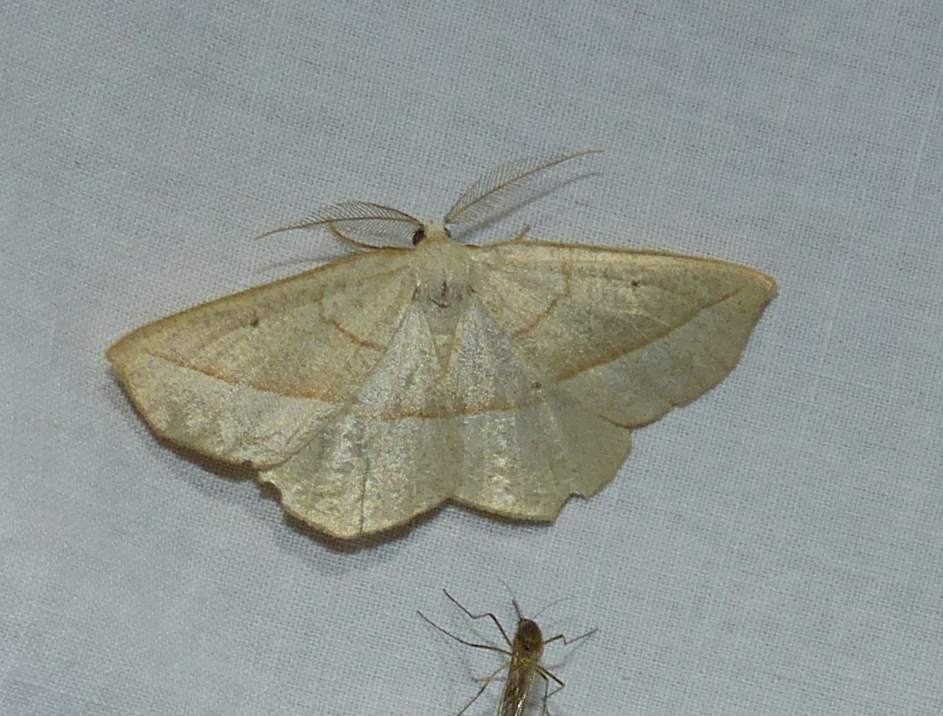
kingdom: Animalia
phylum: Arthropoda
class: Insecta
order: Lepidoptera
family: Geometridae
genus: Eusarca
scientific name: Eusarca confusaria
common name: Confused eusarca
